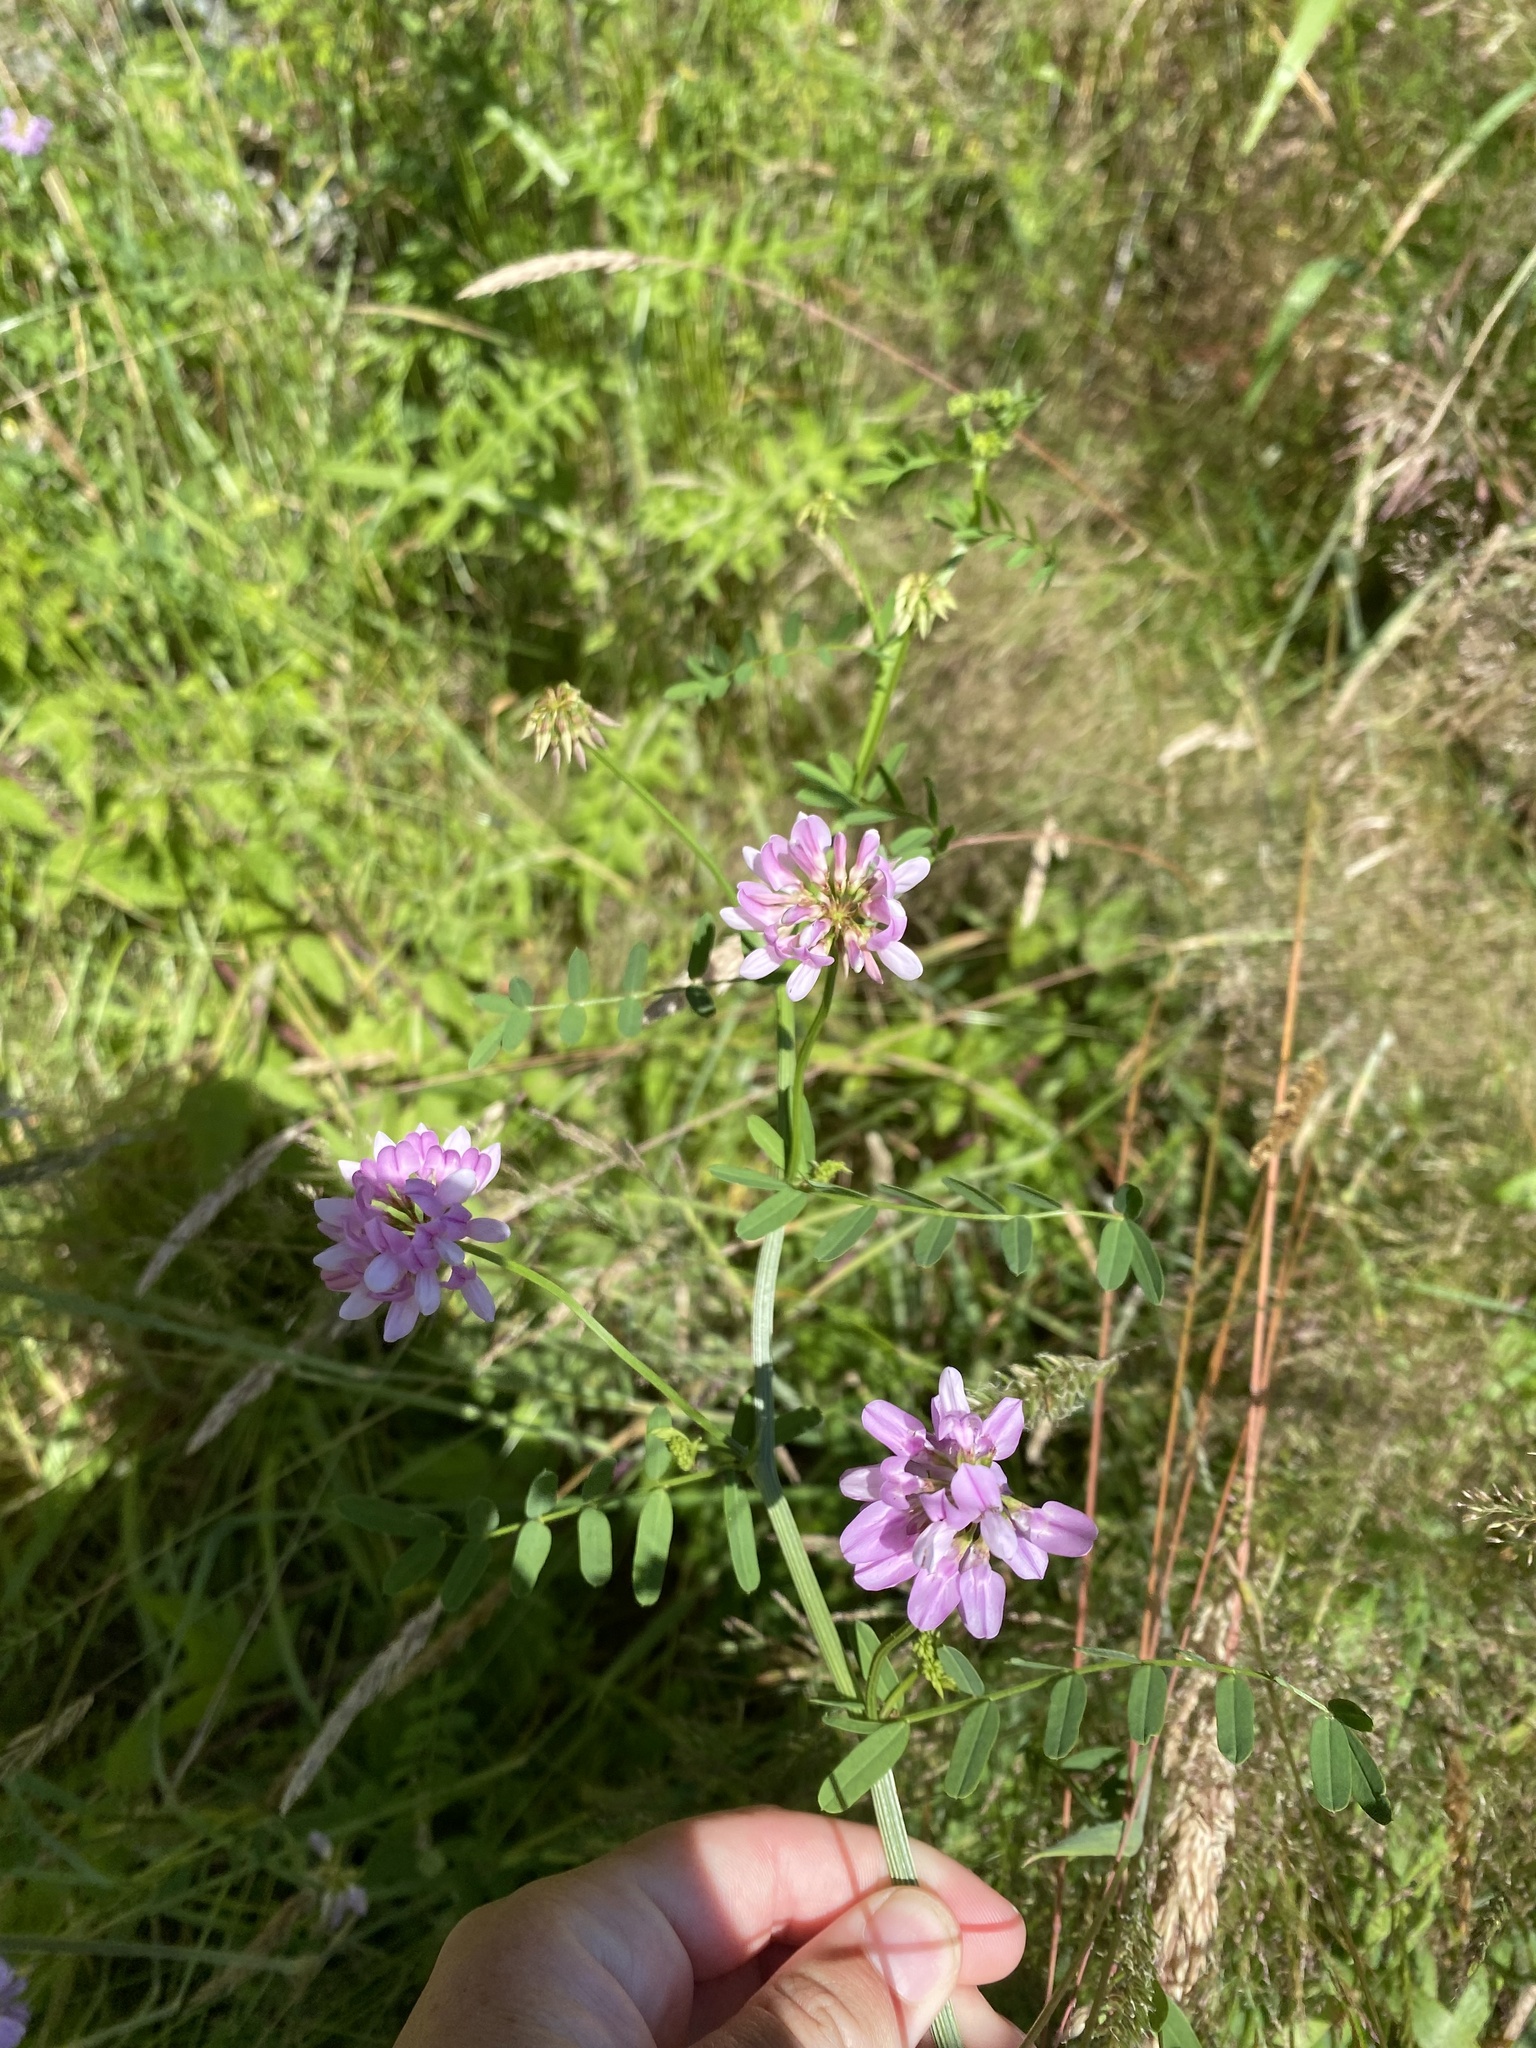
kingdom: Plantae
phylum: Tracheophyta
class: Magnoliopsida
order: Fabales
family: Fabaceae
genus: Coronilla
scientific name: Coronilla varia
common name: Crownvetch
